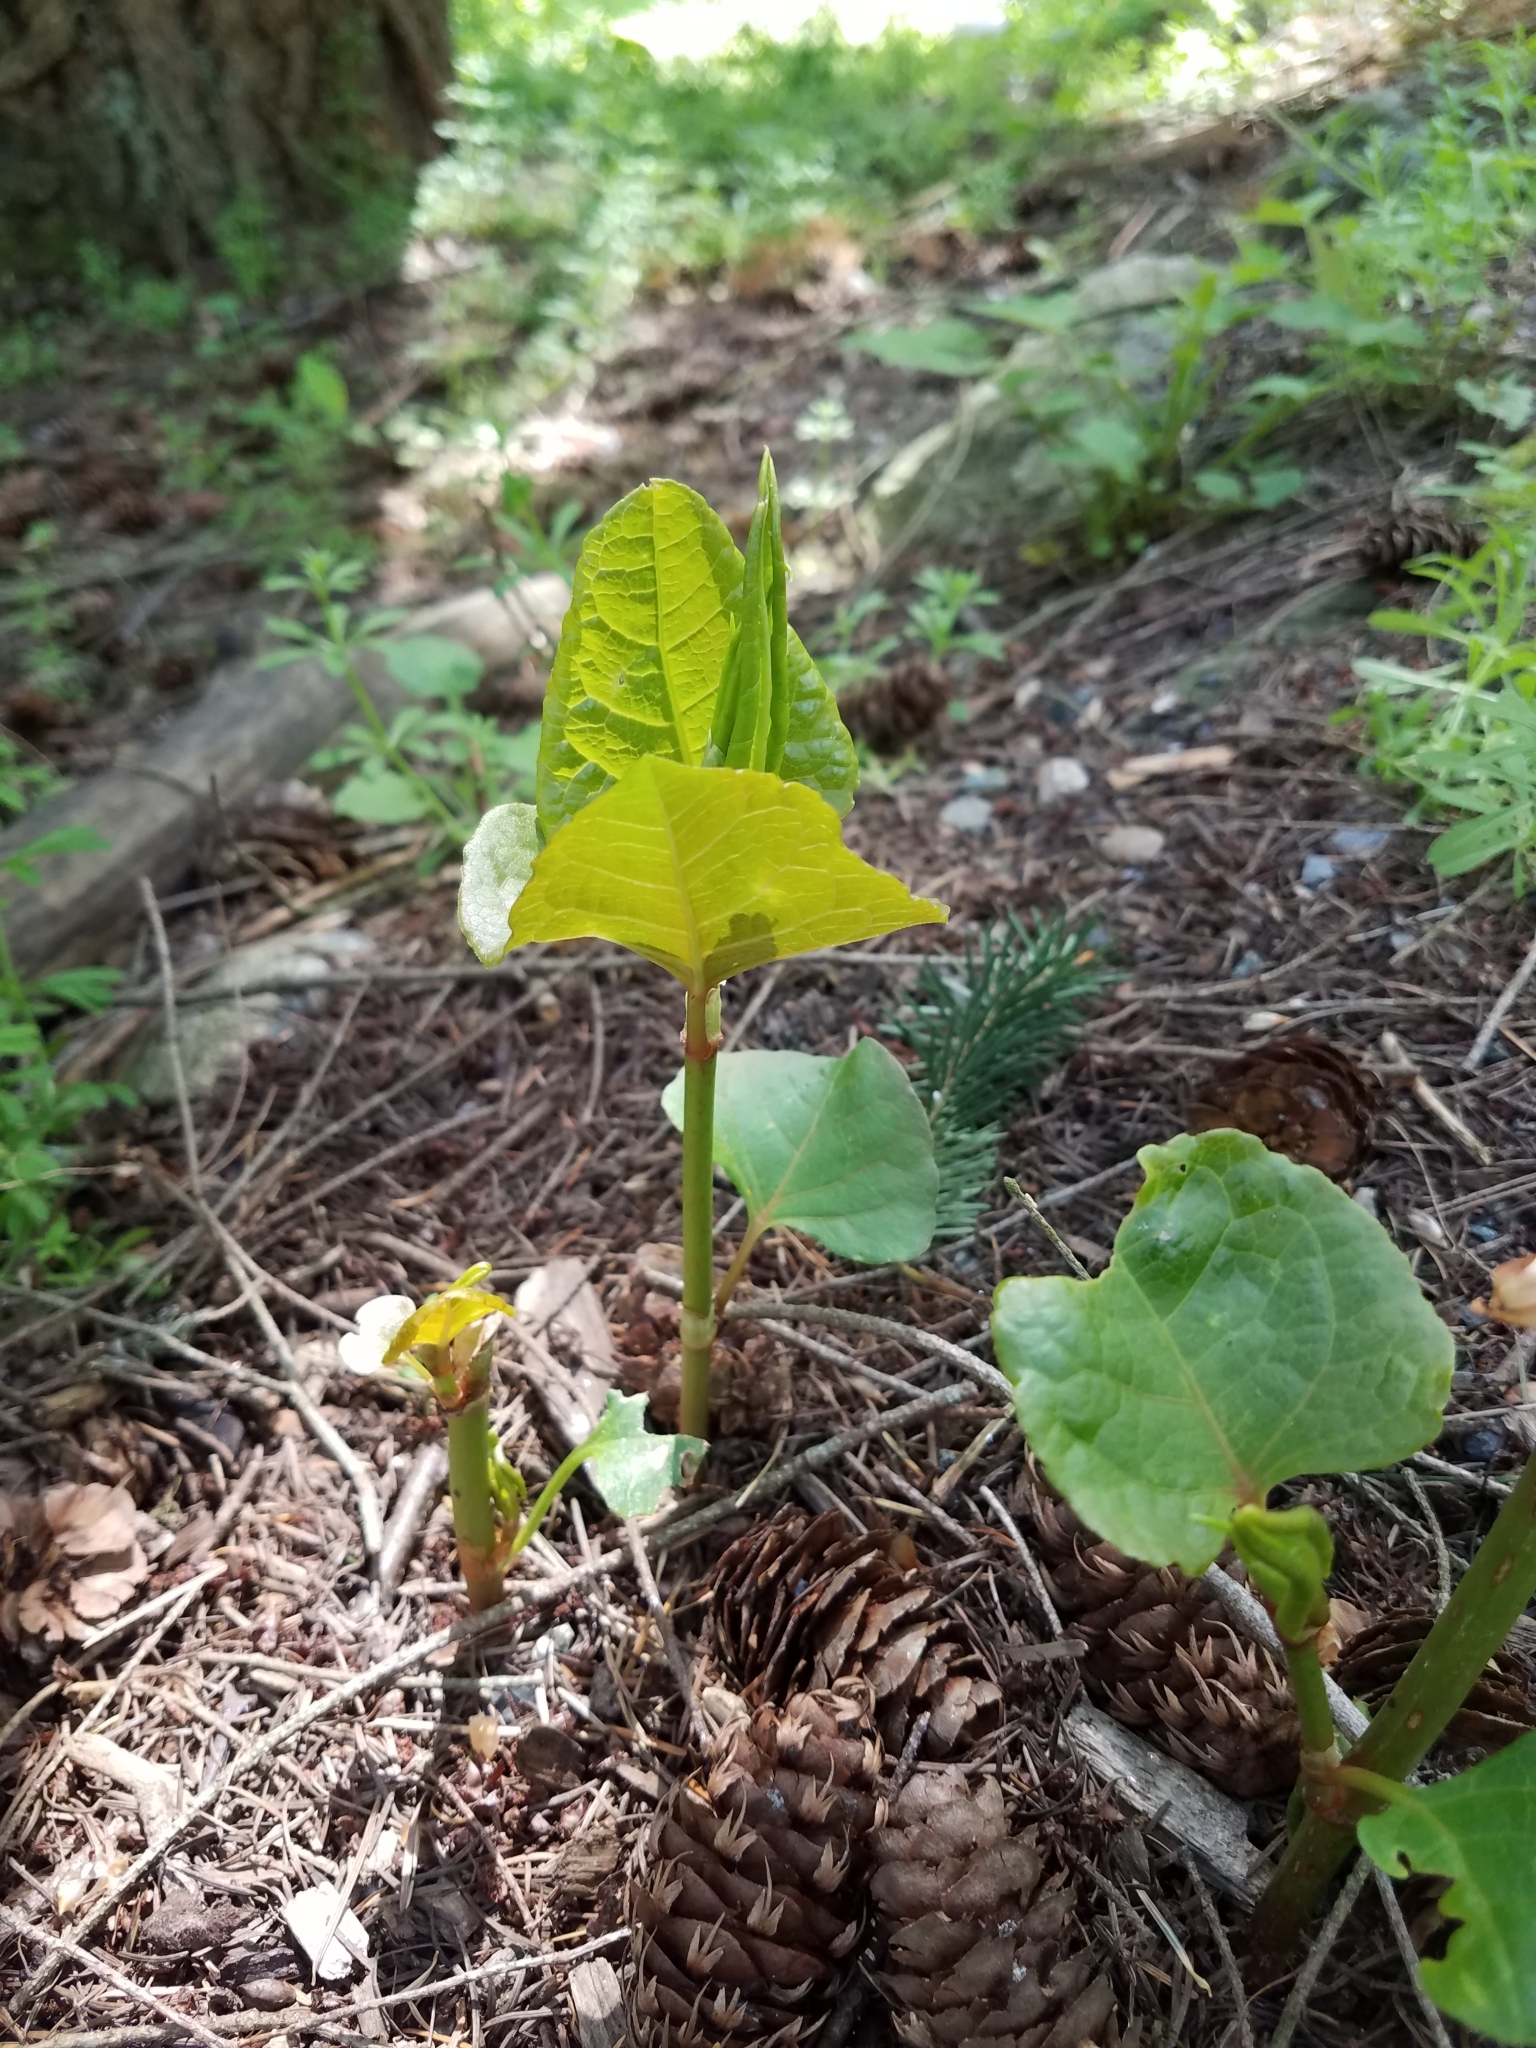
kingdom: Plantae
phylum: Tracheophyta
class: Magnoliopsida
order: Caryophyllales
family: Polygonaceae
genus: Reynoutria
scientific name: Reynoutria japonica
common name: Japanese knotweed
